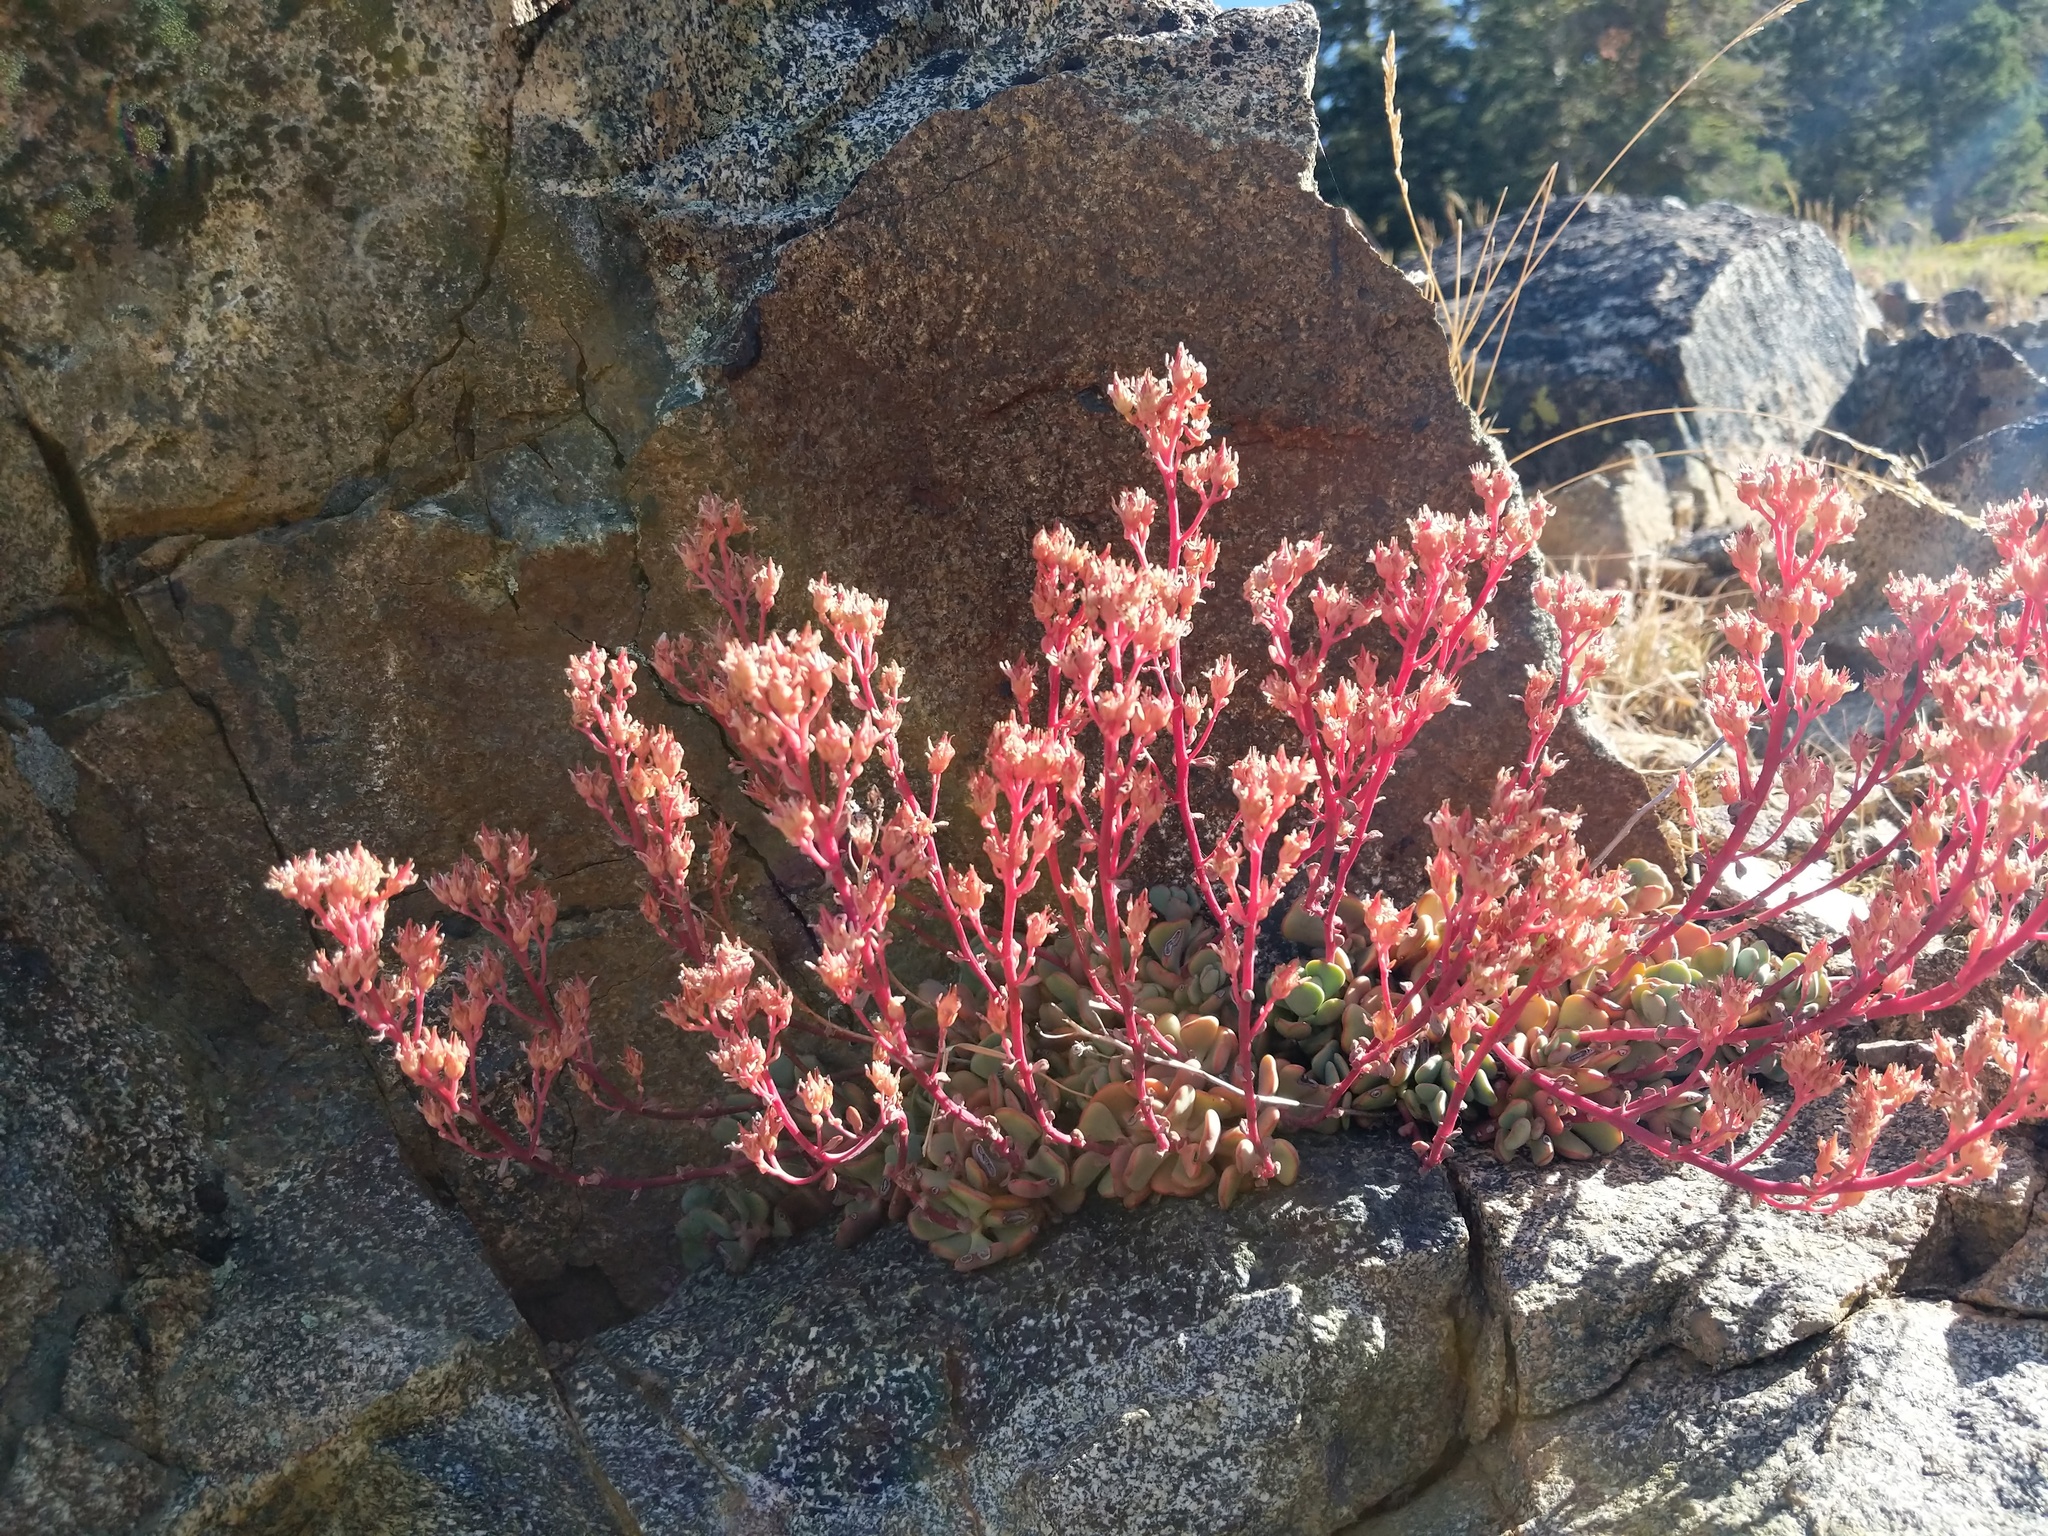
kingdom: Plantae
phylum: Tracheophyta
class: Magnoliopsida
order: Saxifragales
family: Crassulaceae
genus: Sedum
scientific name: Sedum obtusatum
